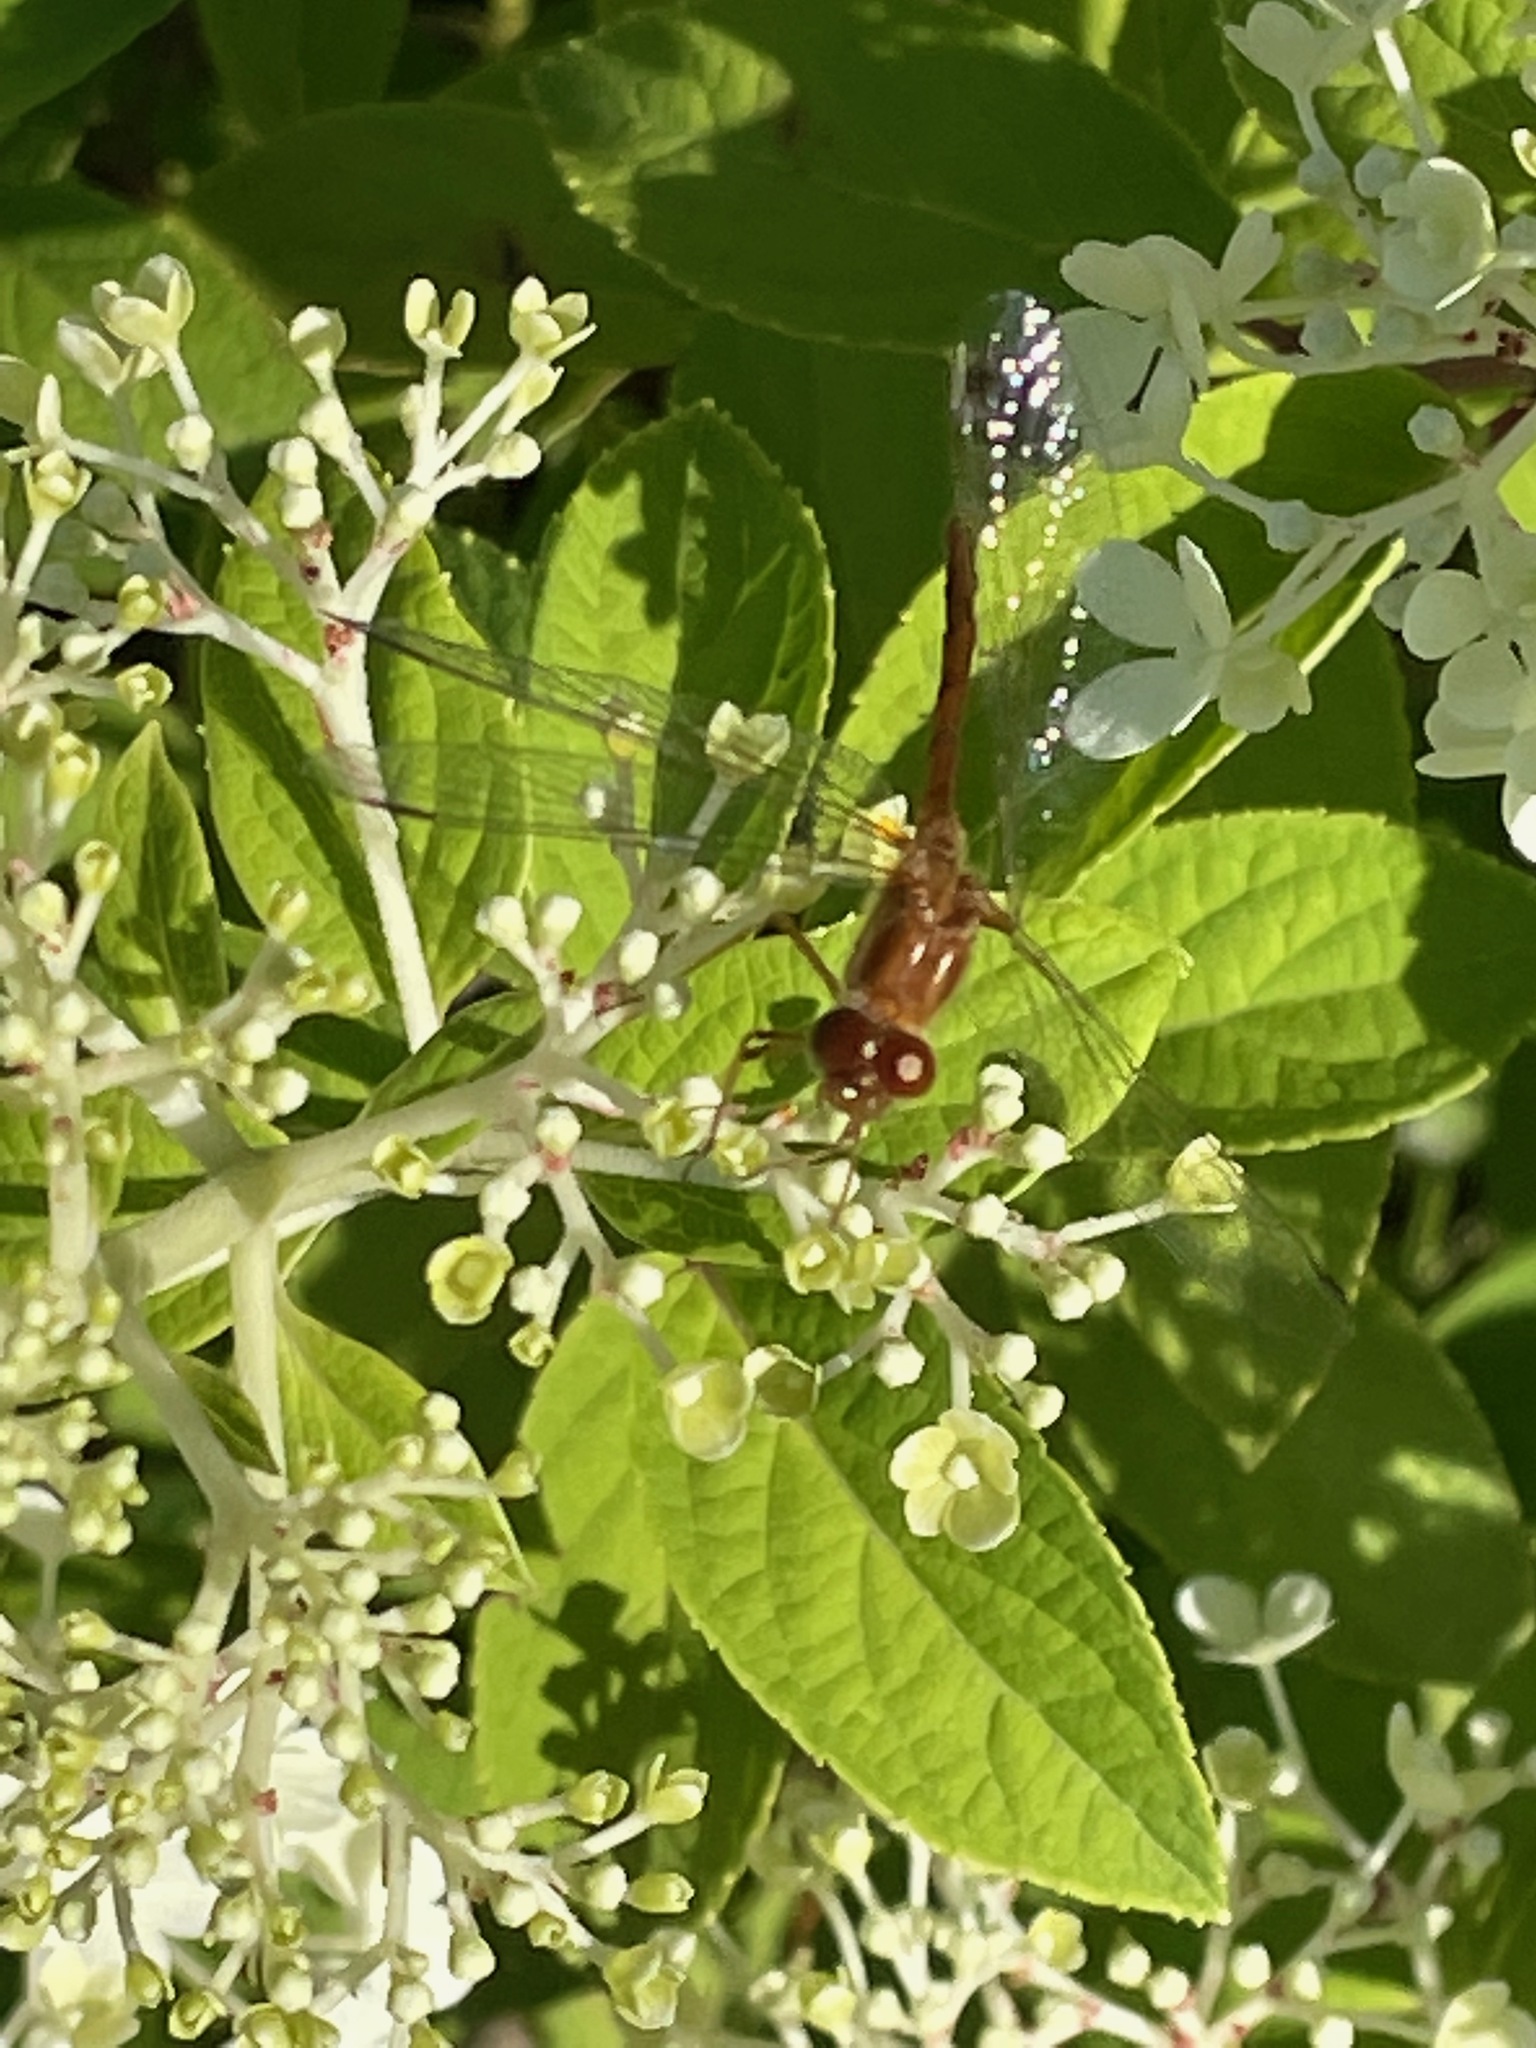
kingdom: Animalia
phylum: Arthropoda
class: Insecta
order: Odonata
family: Libellulidae
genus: Sympetrum
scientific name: Sympetrum vicinum
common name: Autumn meadowhawk
